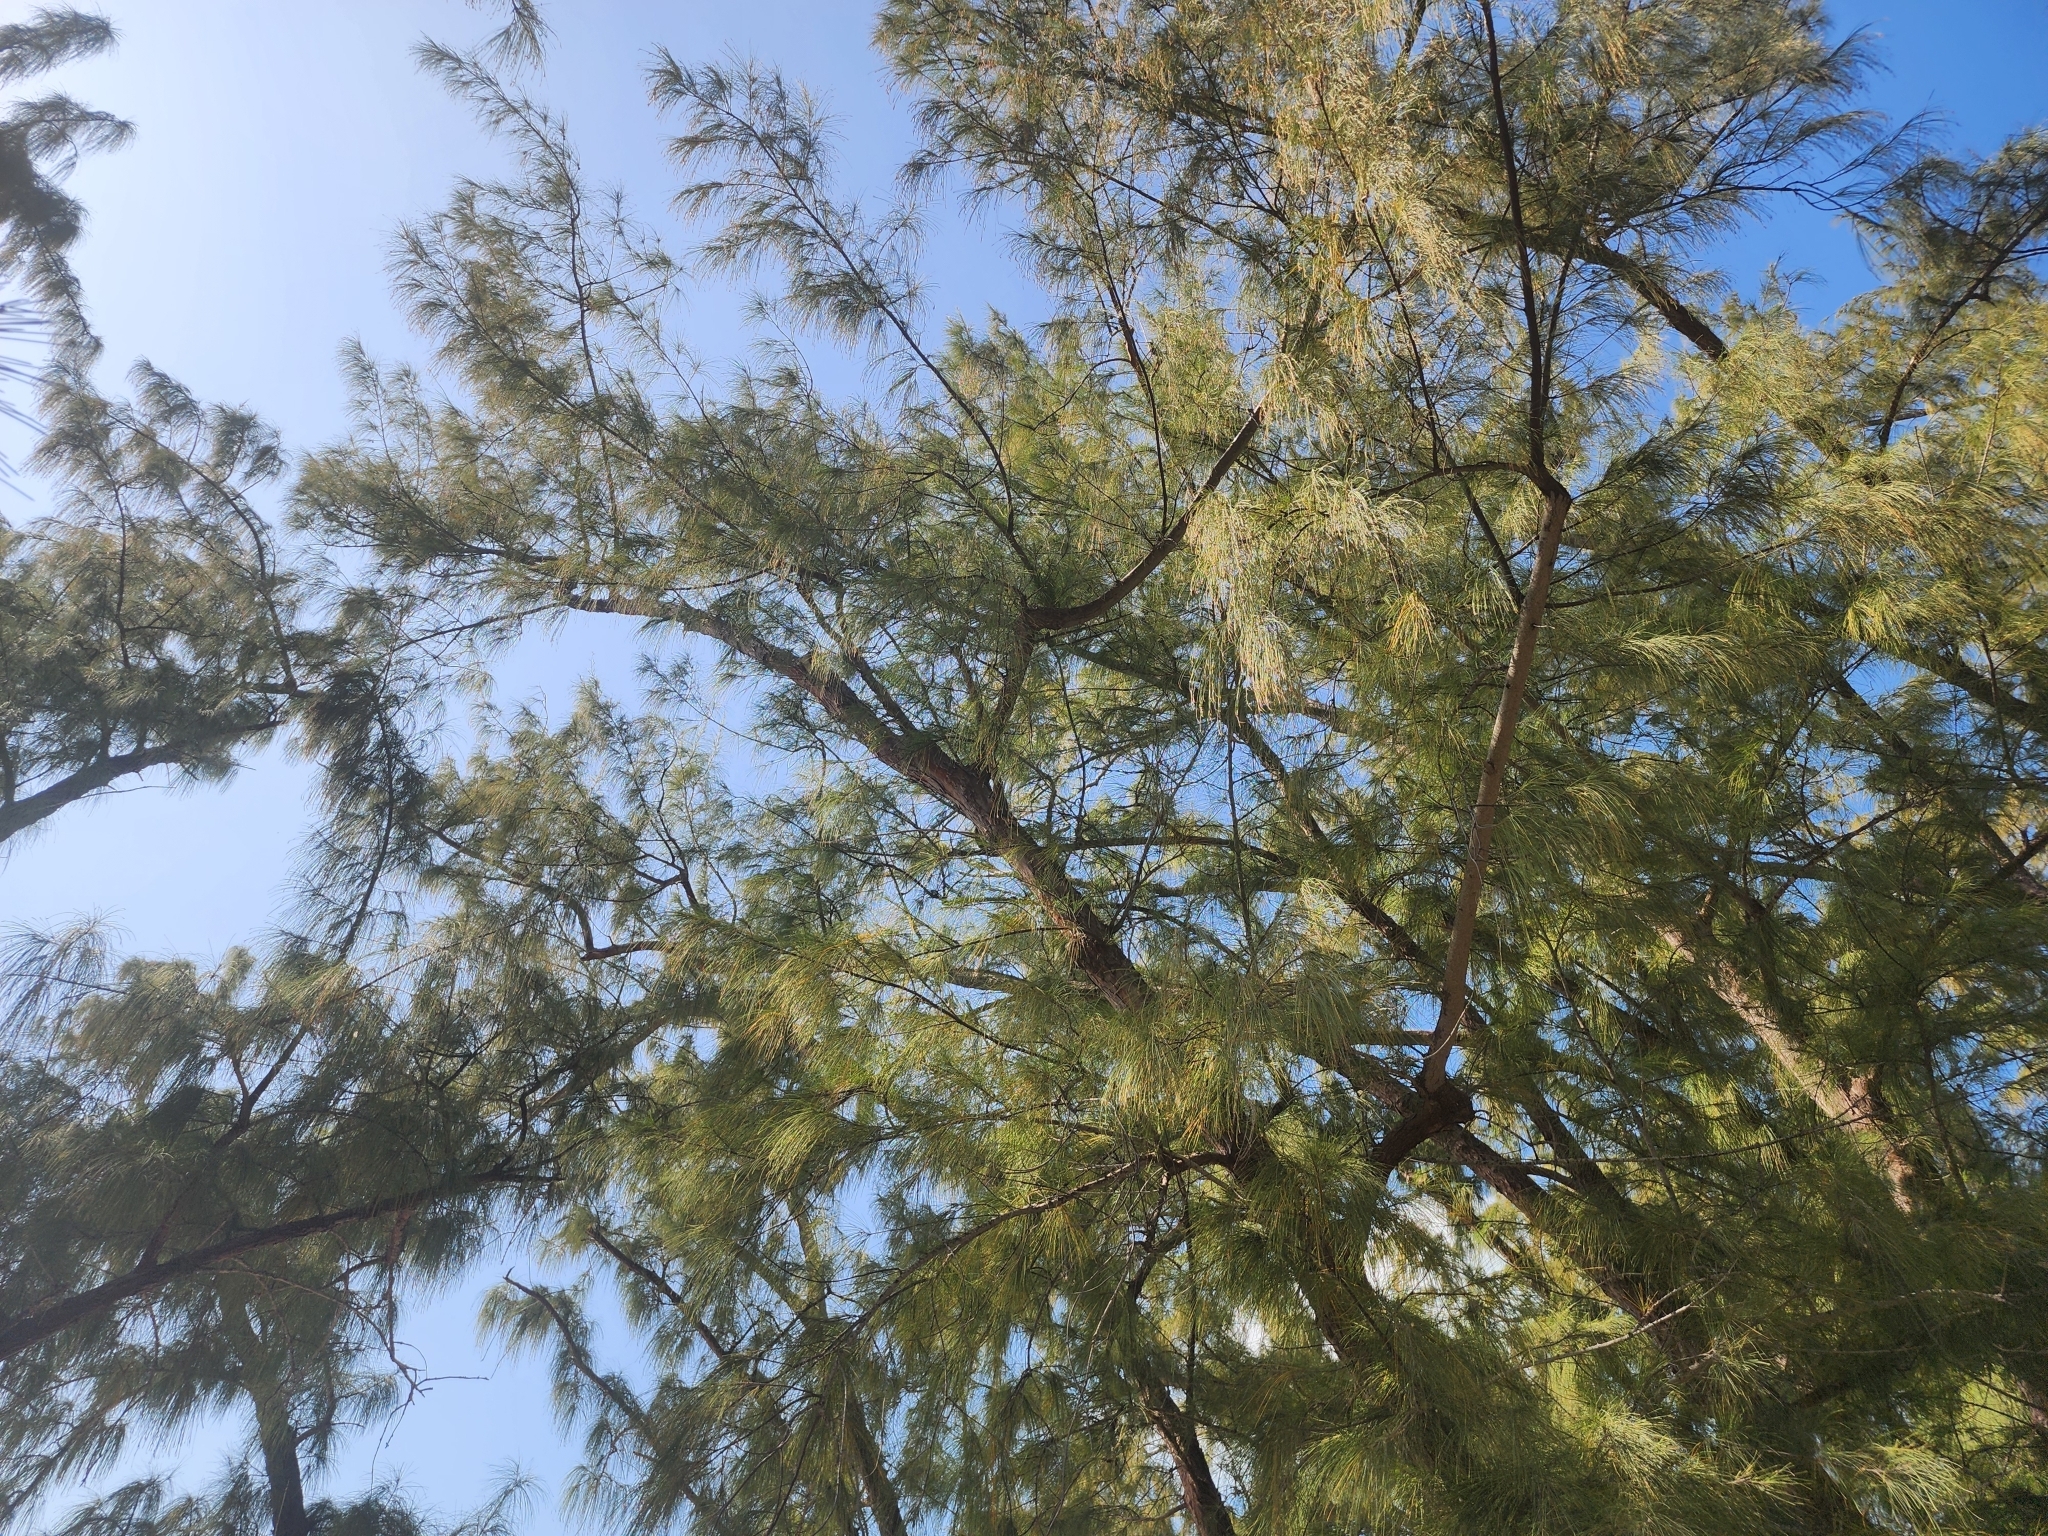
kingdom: Plantae
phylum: Tracheophyta
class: Magnoliopsida
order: Fagales
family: Casuarinaceae
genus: Casuarina
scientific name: Casuarina equisetifolia
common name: Beach sheoak
